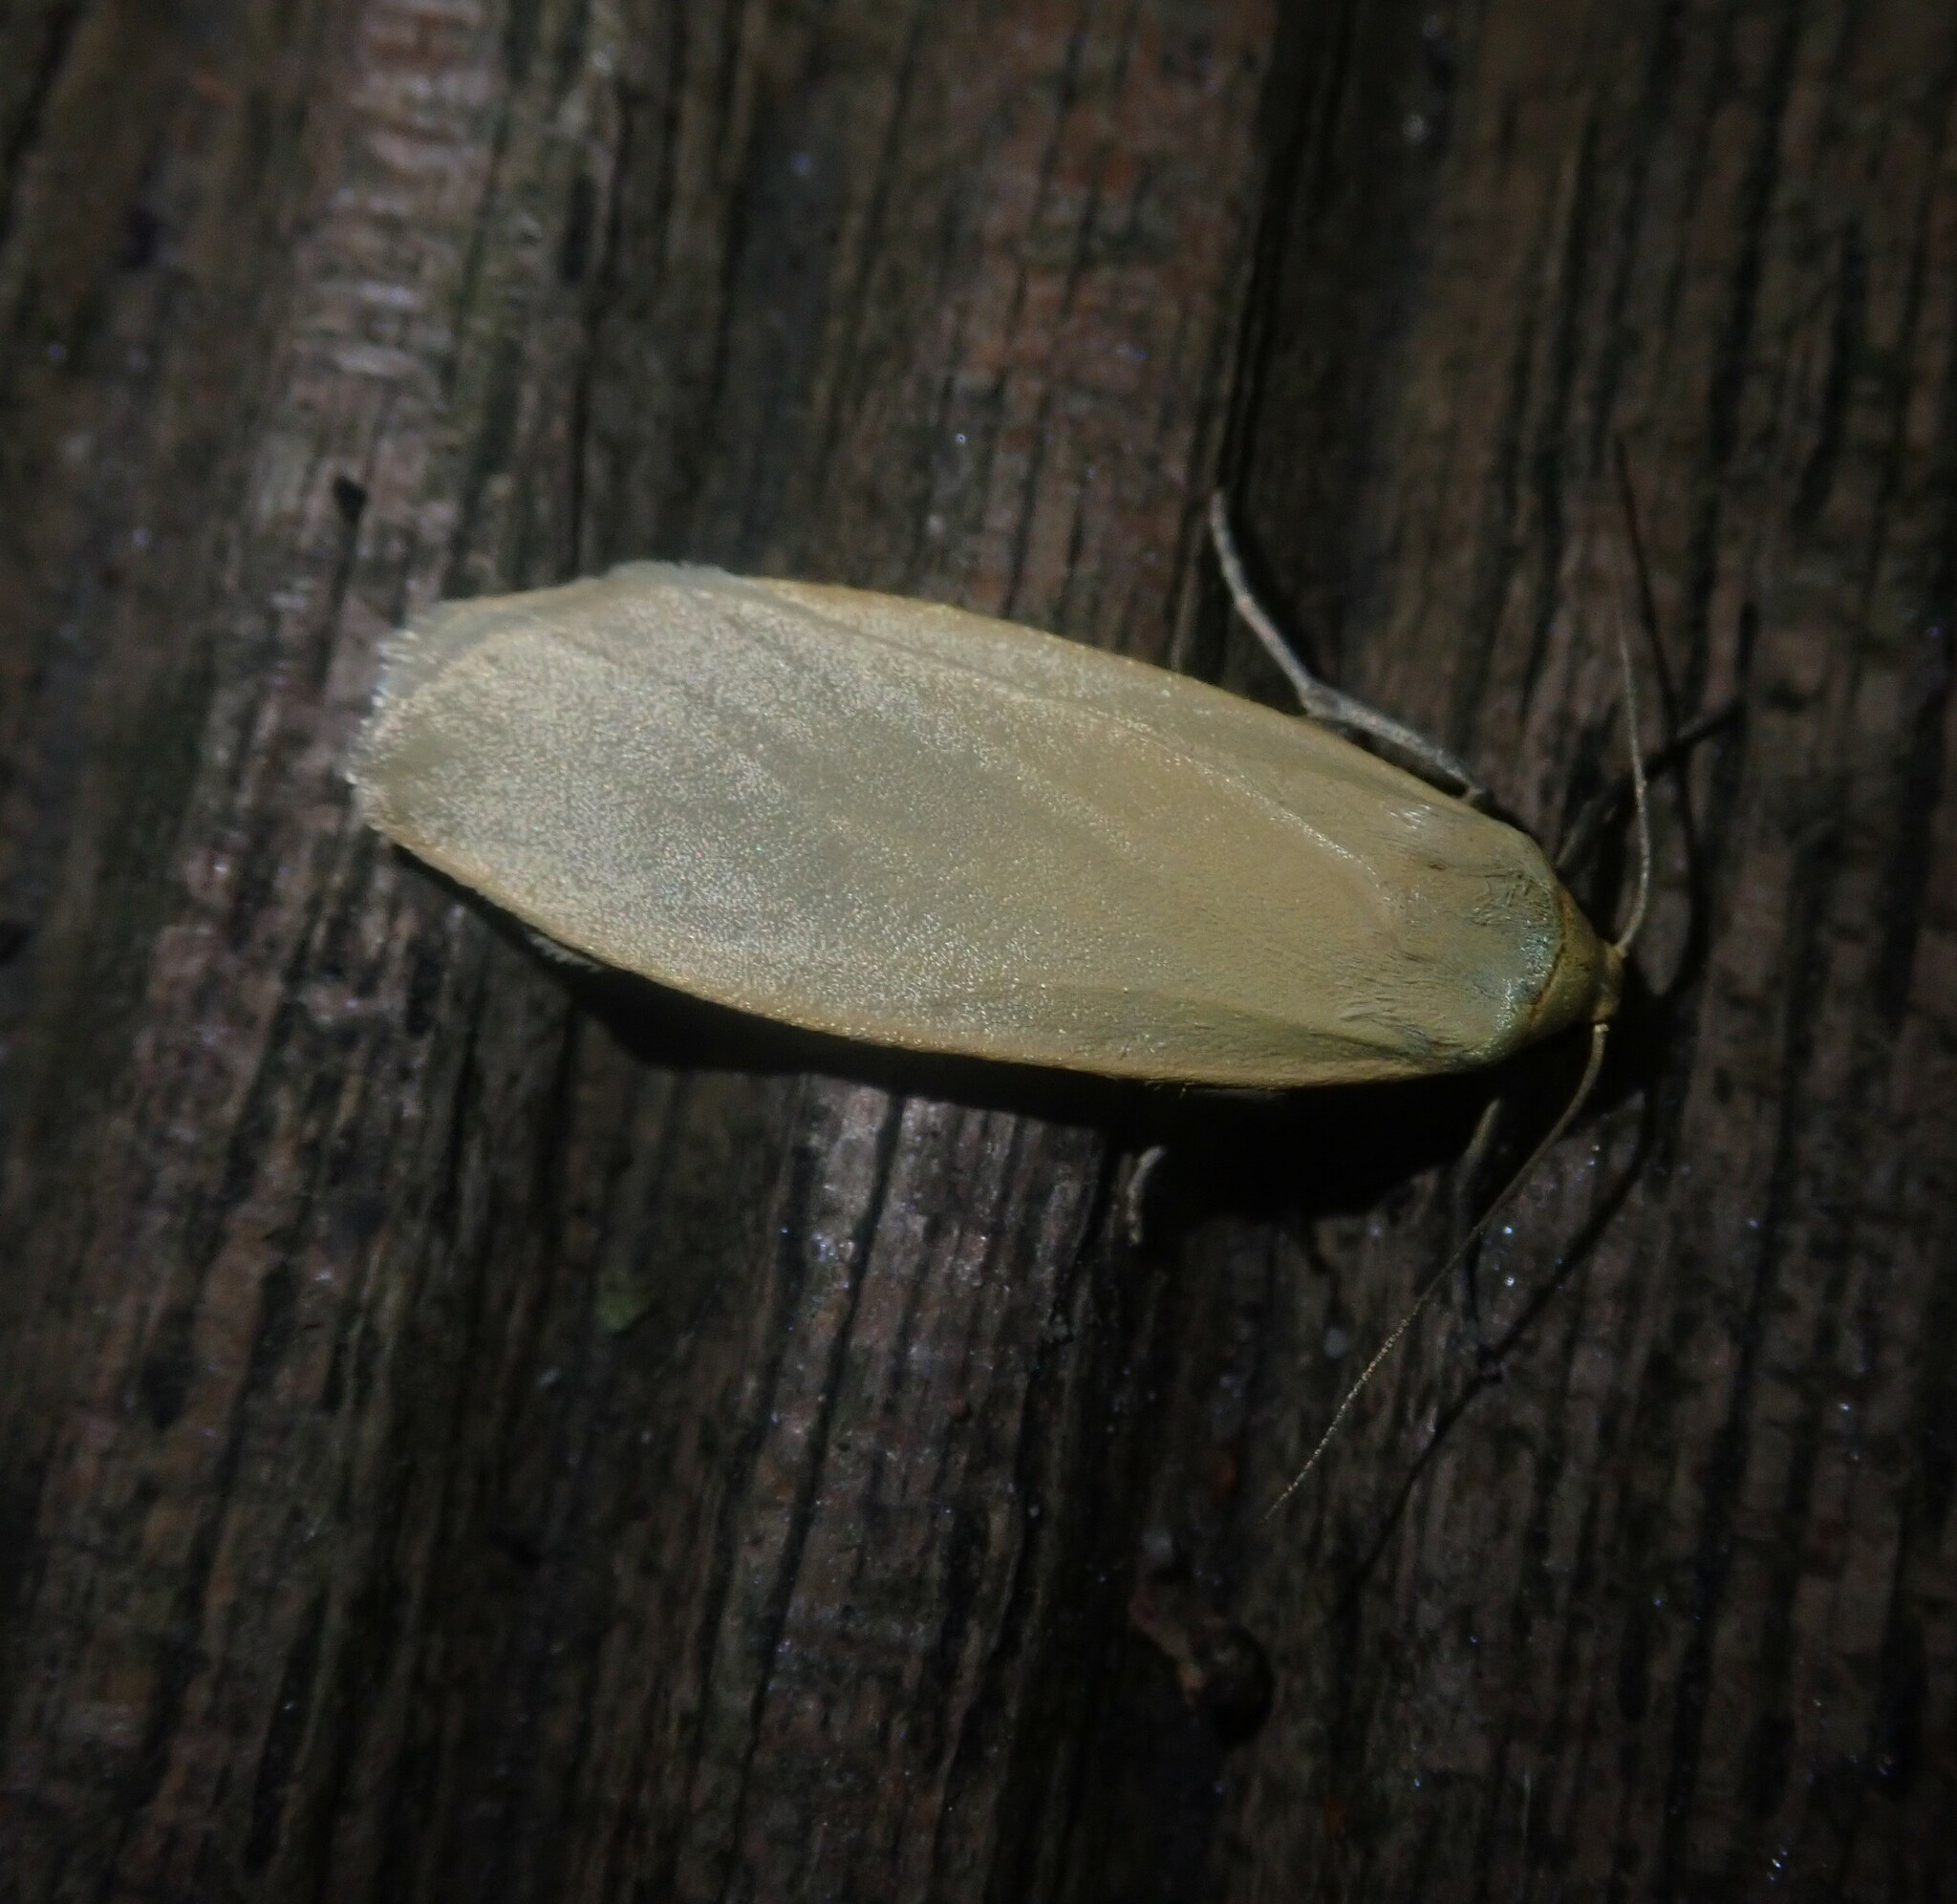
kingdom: Animalia
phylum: Arthropoda
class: Insecta
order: Lepidoptera
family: Erebidae
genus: Collita
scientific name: Collita griseola
